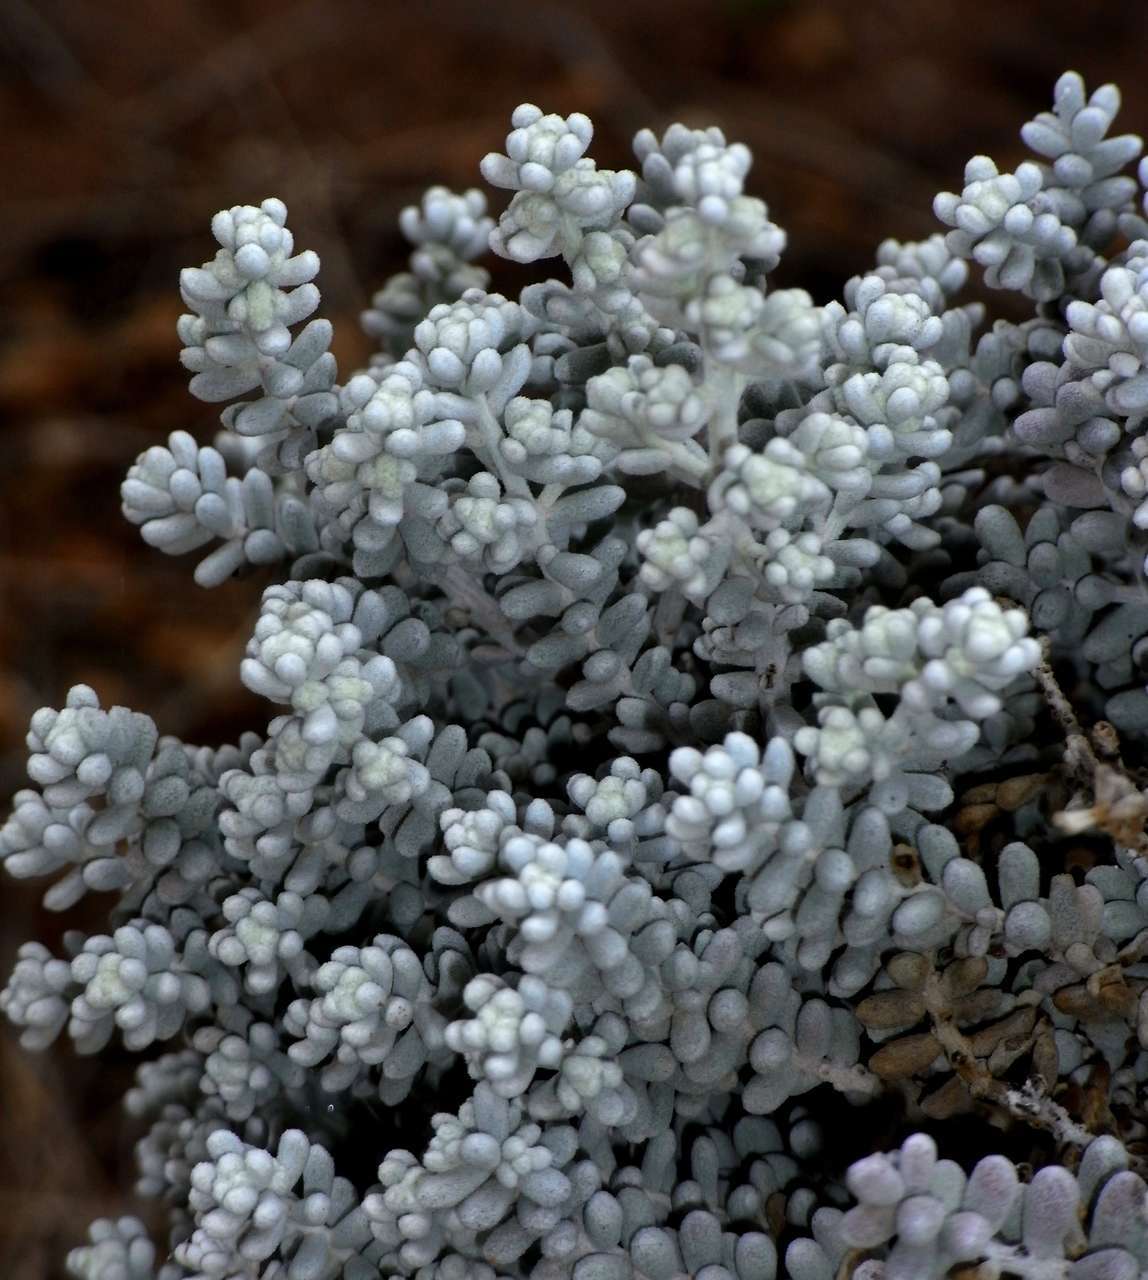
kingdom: Plantae
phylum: Tracheophyta
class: Magnoliopsida
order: Caryophyllales
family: Amaranthaceae
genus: Maireana
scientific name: Maireana sedifolia
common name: Hoary bluebush
